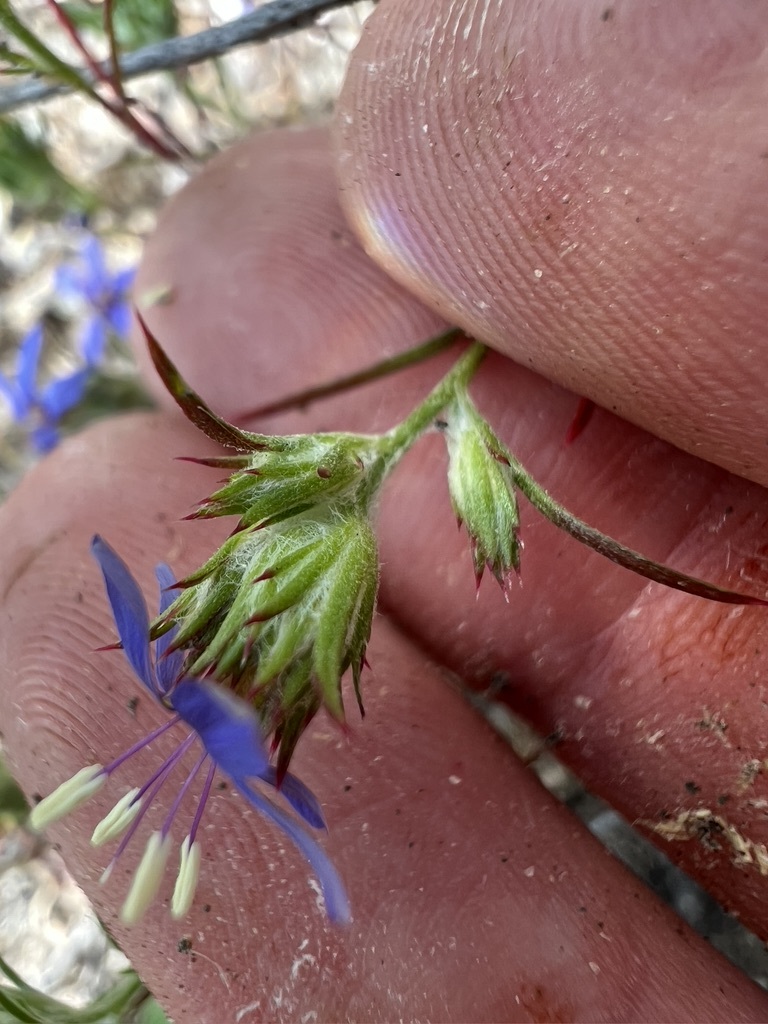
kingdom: Plantae
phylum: Tracheophyta
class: Magnoliopsida
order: Ericales
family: Polemoniaceae
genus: Eriastrum
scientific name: Eriastrum sapphirinum
